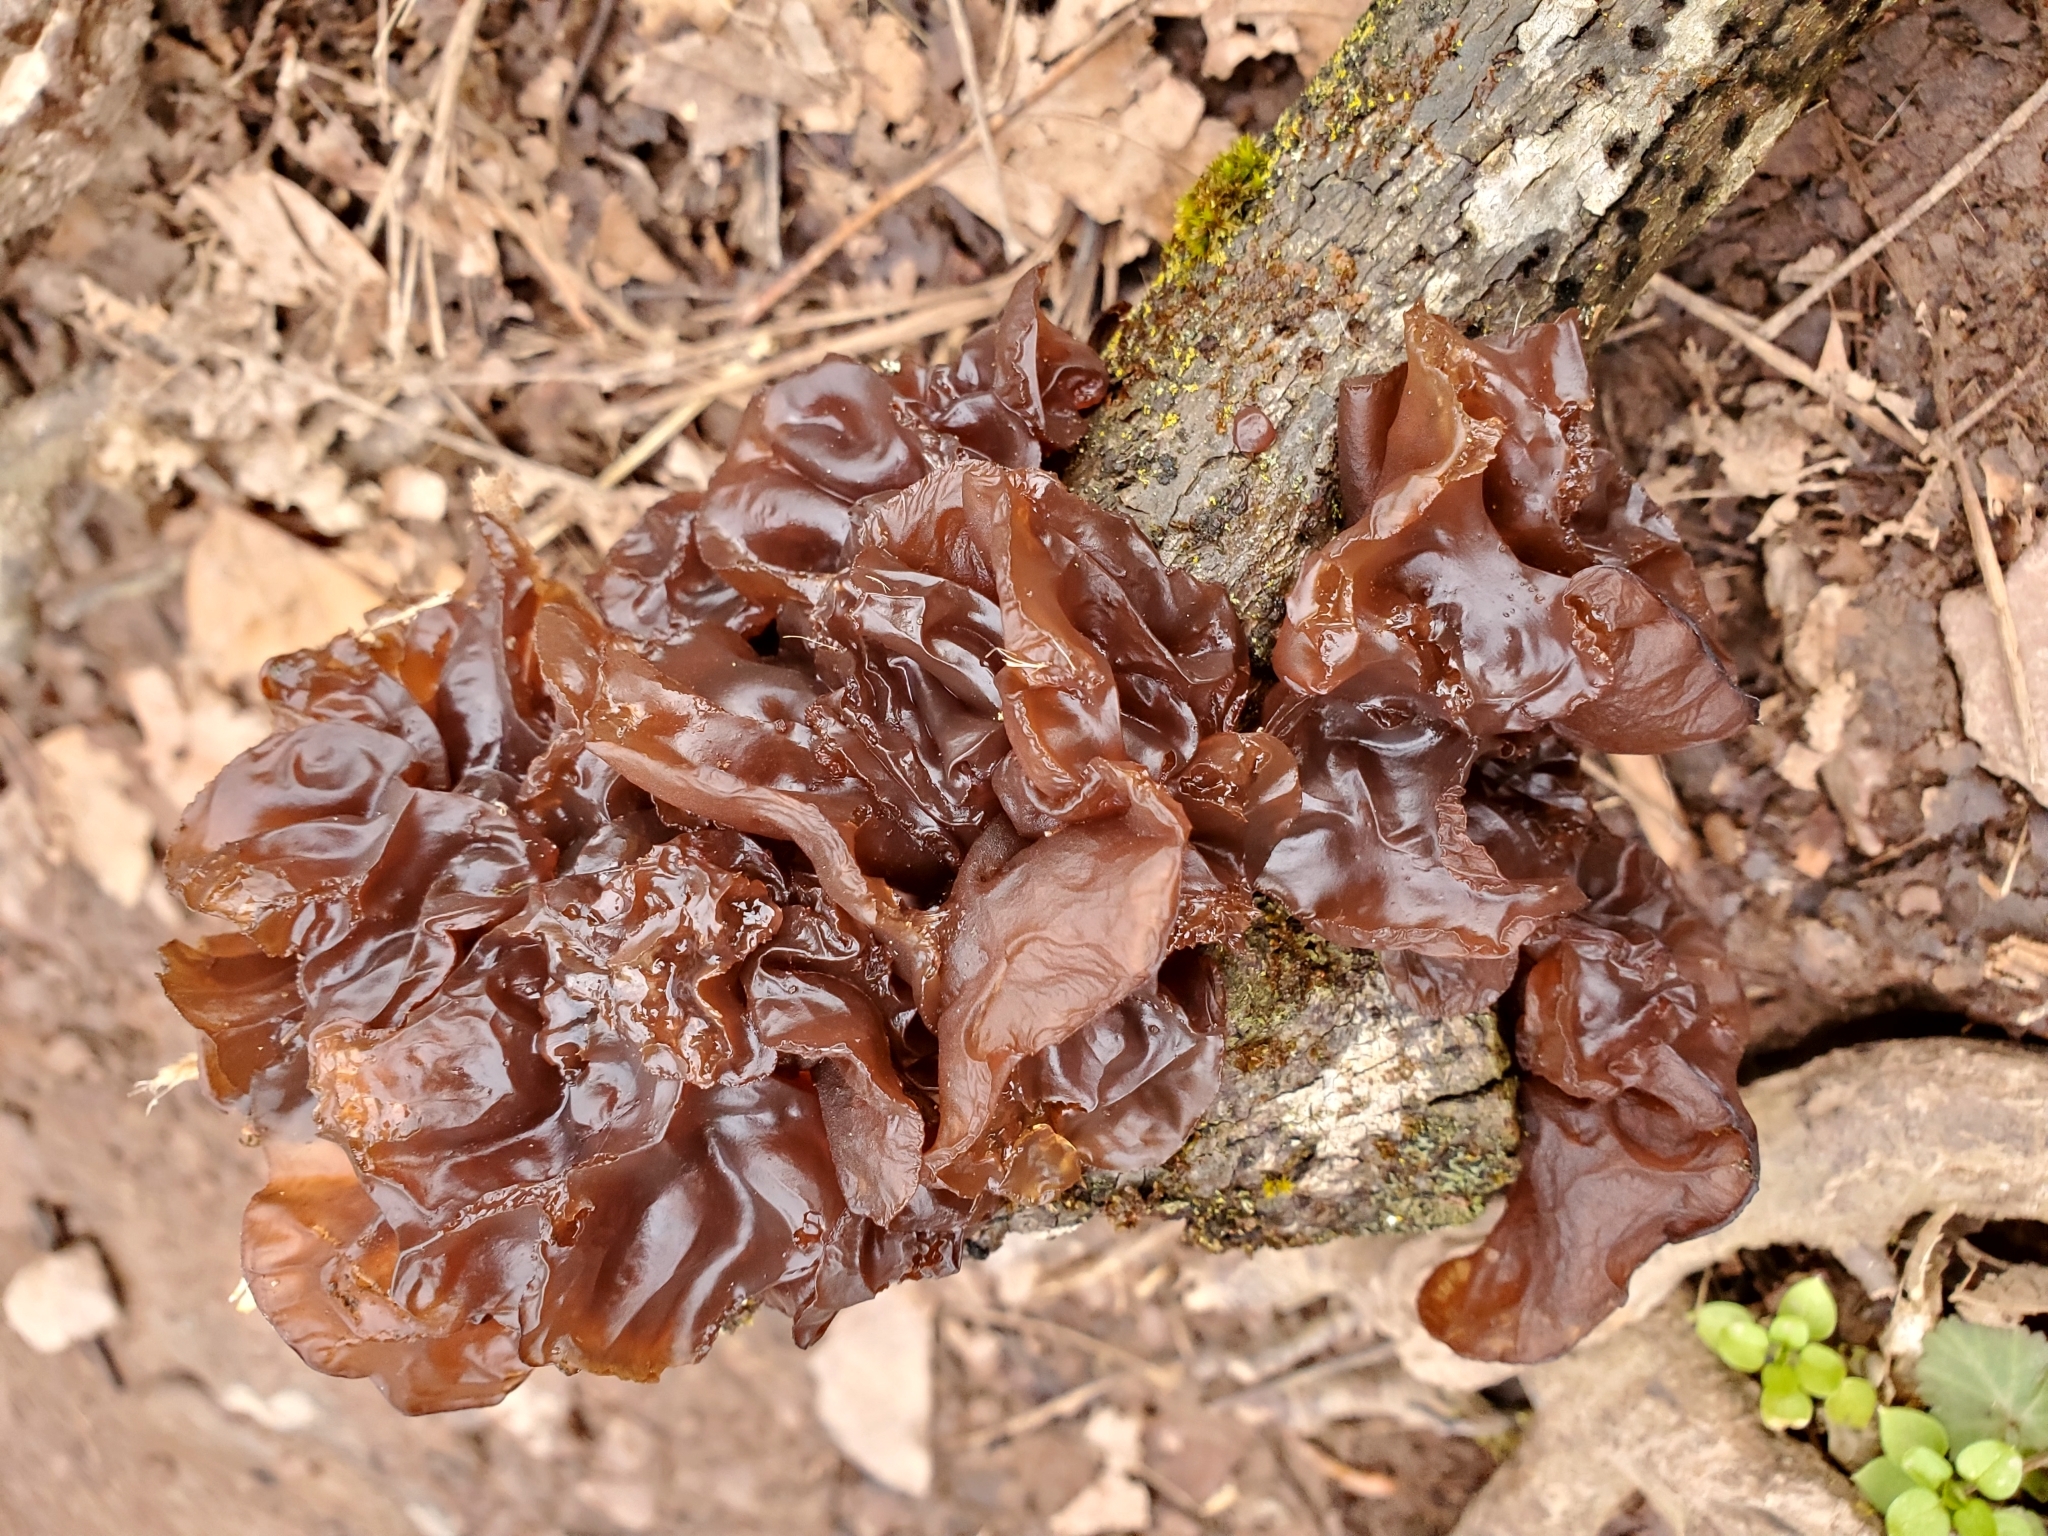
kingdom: Fungi
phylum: Basidiomycota
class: Agaricomycetes
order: Auriculariales
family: Auriculariaceae
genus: Exidia
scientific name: Exidia
